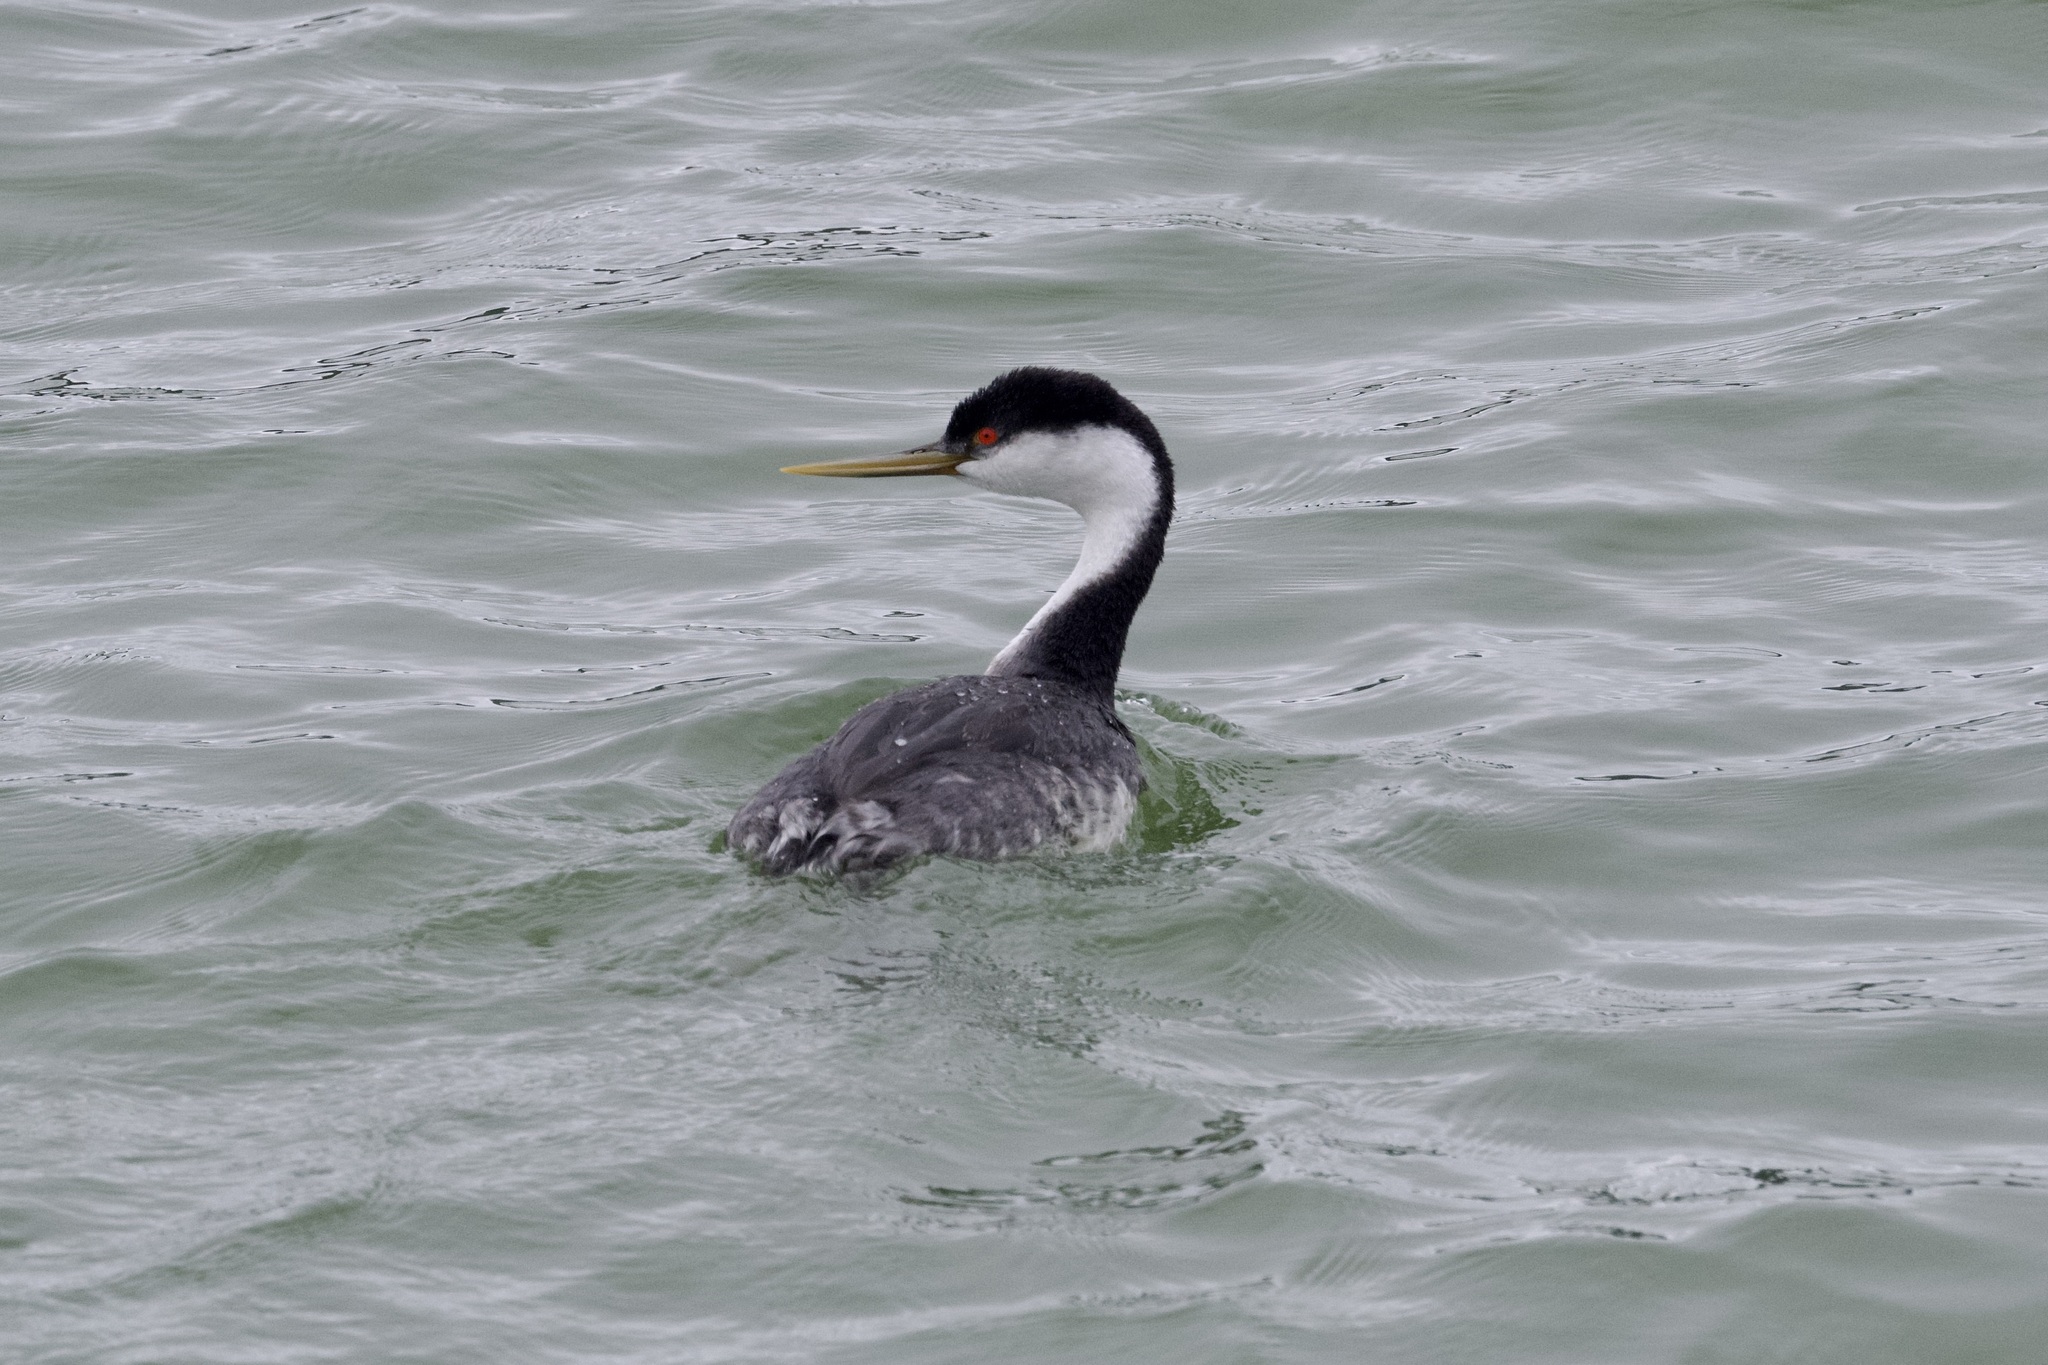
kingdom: Animalia
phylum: Chordata
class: Aves
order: Podicipediformes
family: Podicipedidae
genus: Aechmophorus
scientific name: Aechmophorus occidentalis
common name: Western grebe
